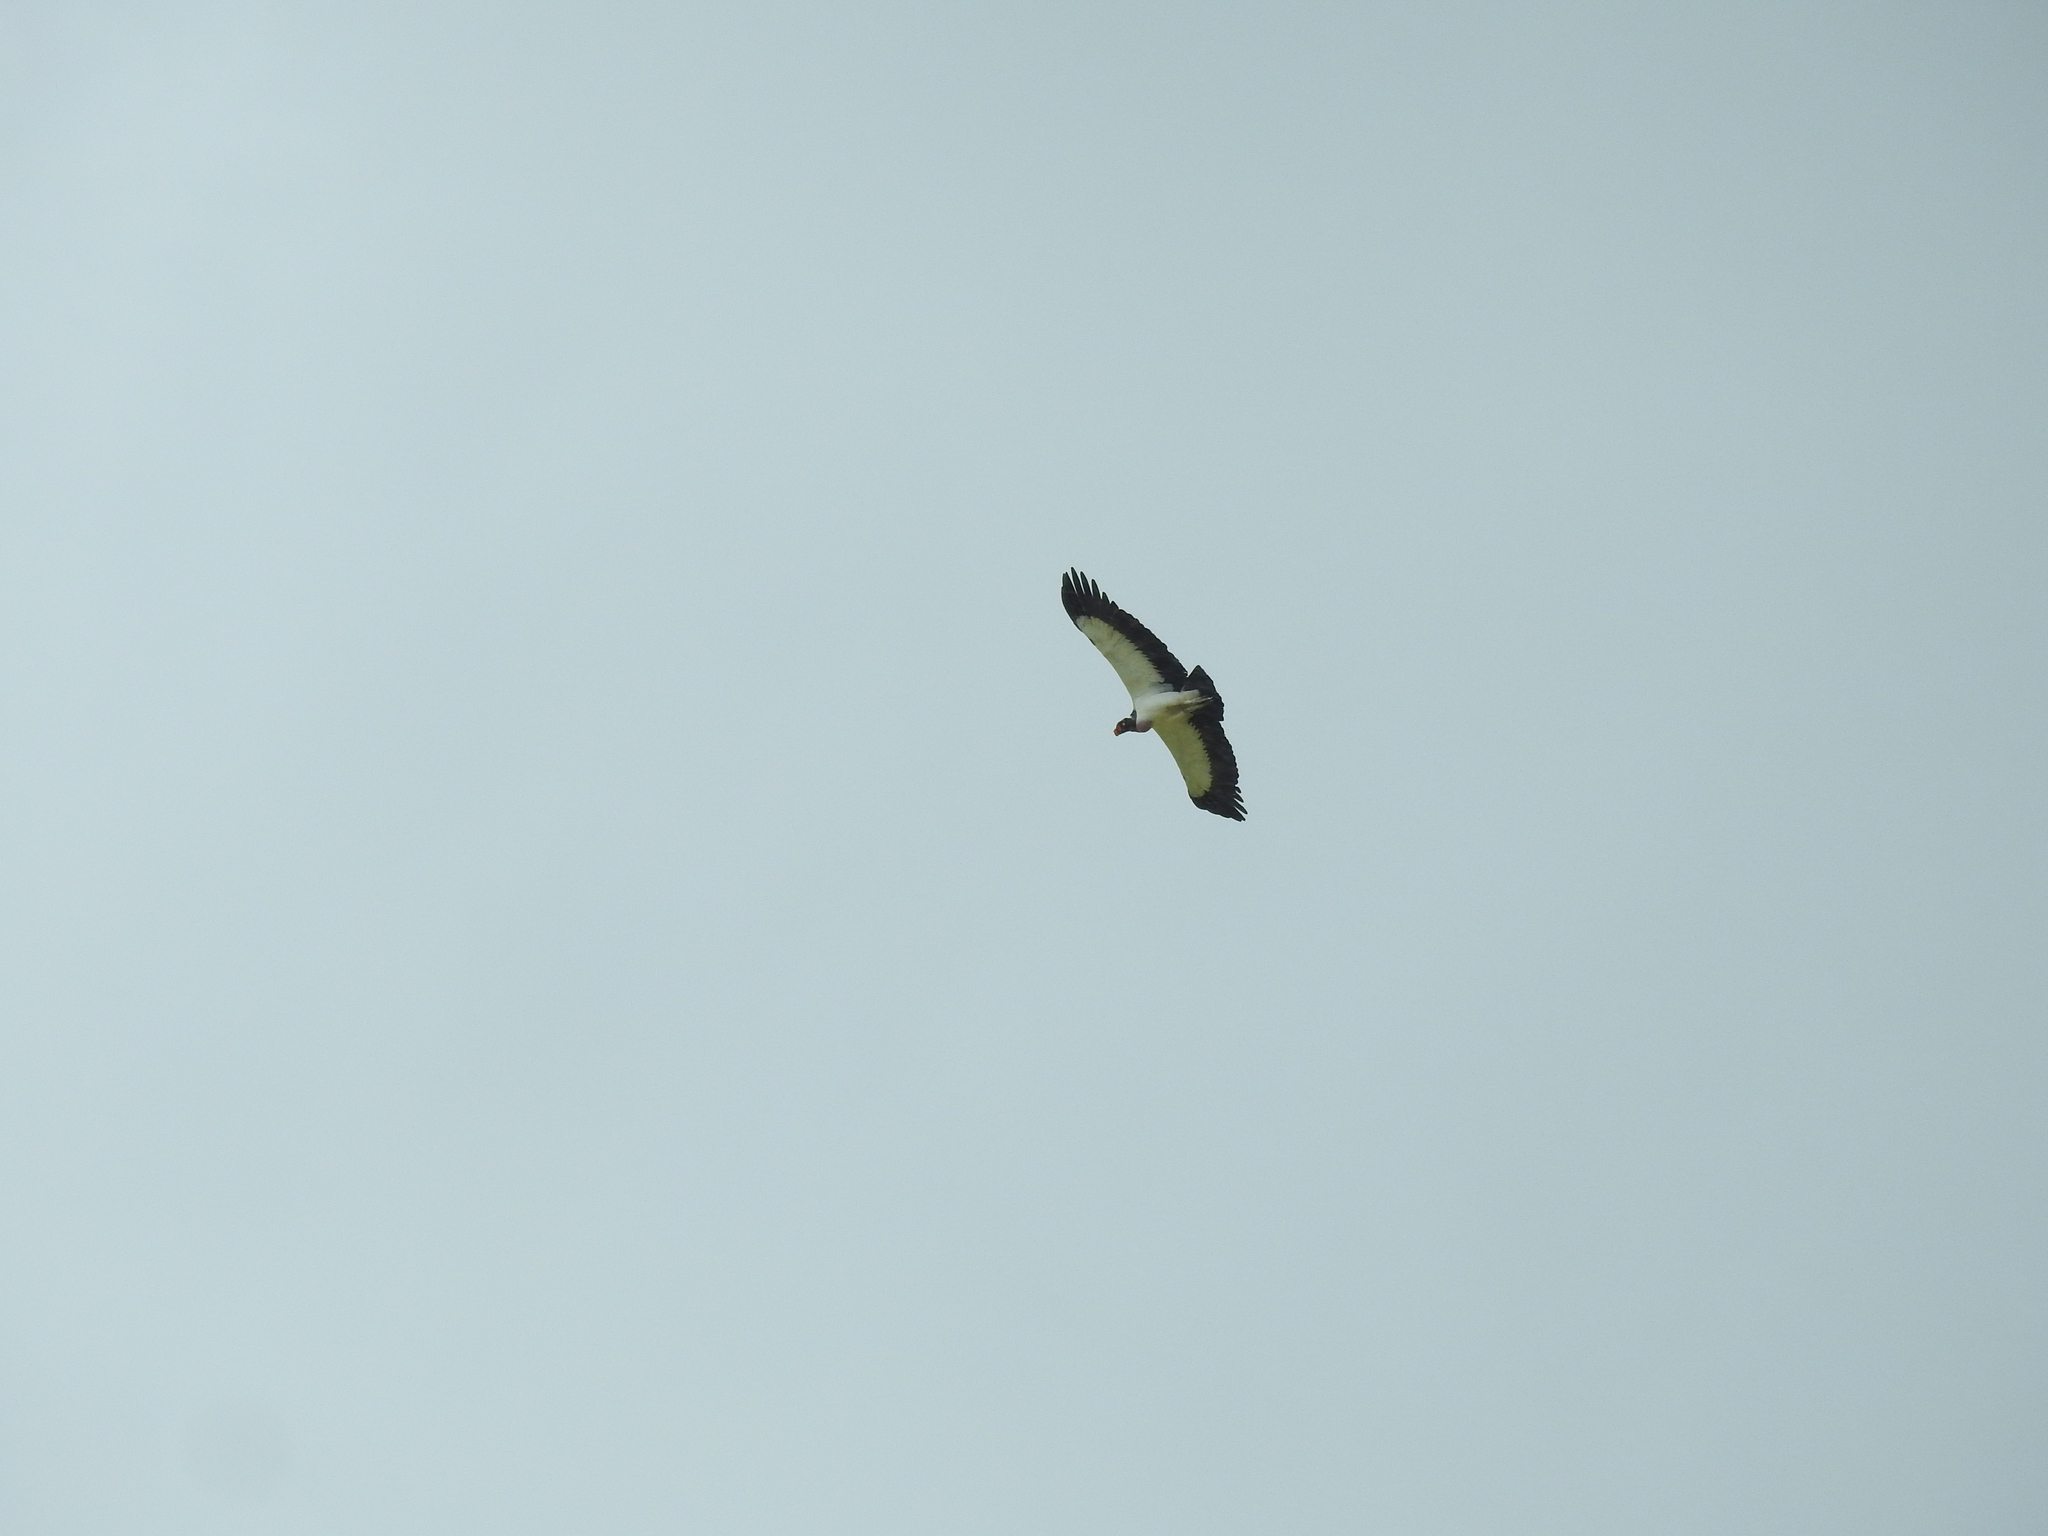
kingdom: Animalia
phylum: Chordata
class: Aves
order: Accipitriformes
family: Cathartidae
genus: Sarcoramphus
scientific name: Sarcoramphus papa
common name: King vulture
